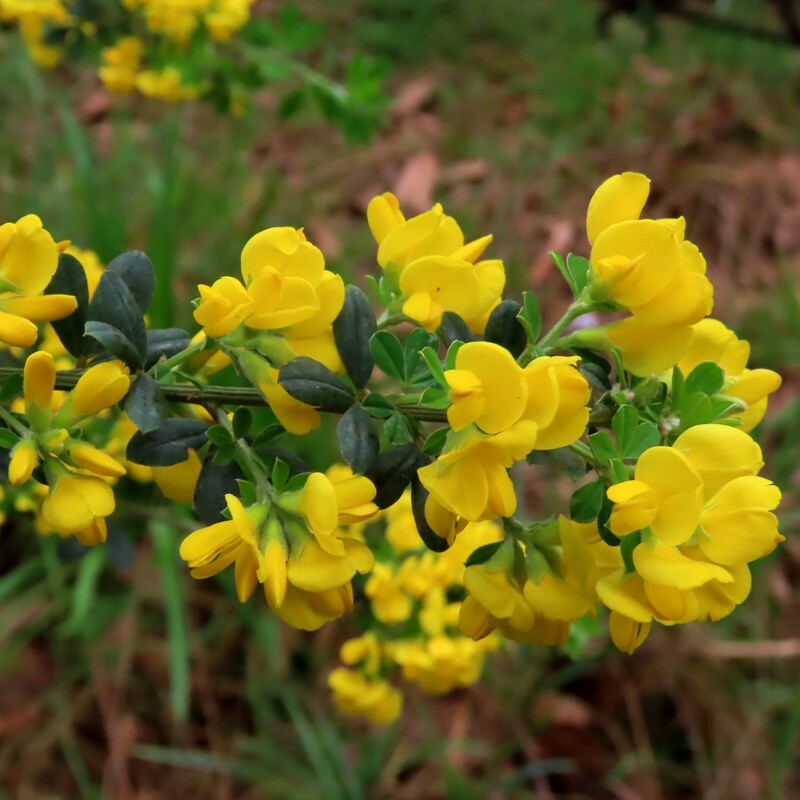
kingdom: Plantae
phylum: Tracheophyta
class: Magnoliopsida
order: Fabales
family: Fabaceae
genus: Genista
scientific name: Genista monspessulana
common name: Montpellier broom
